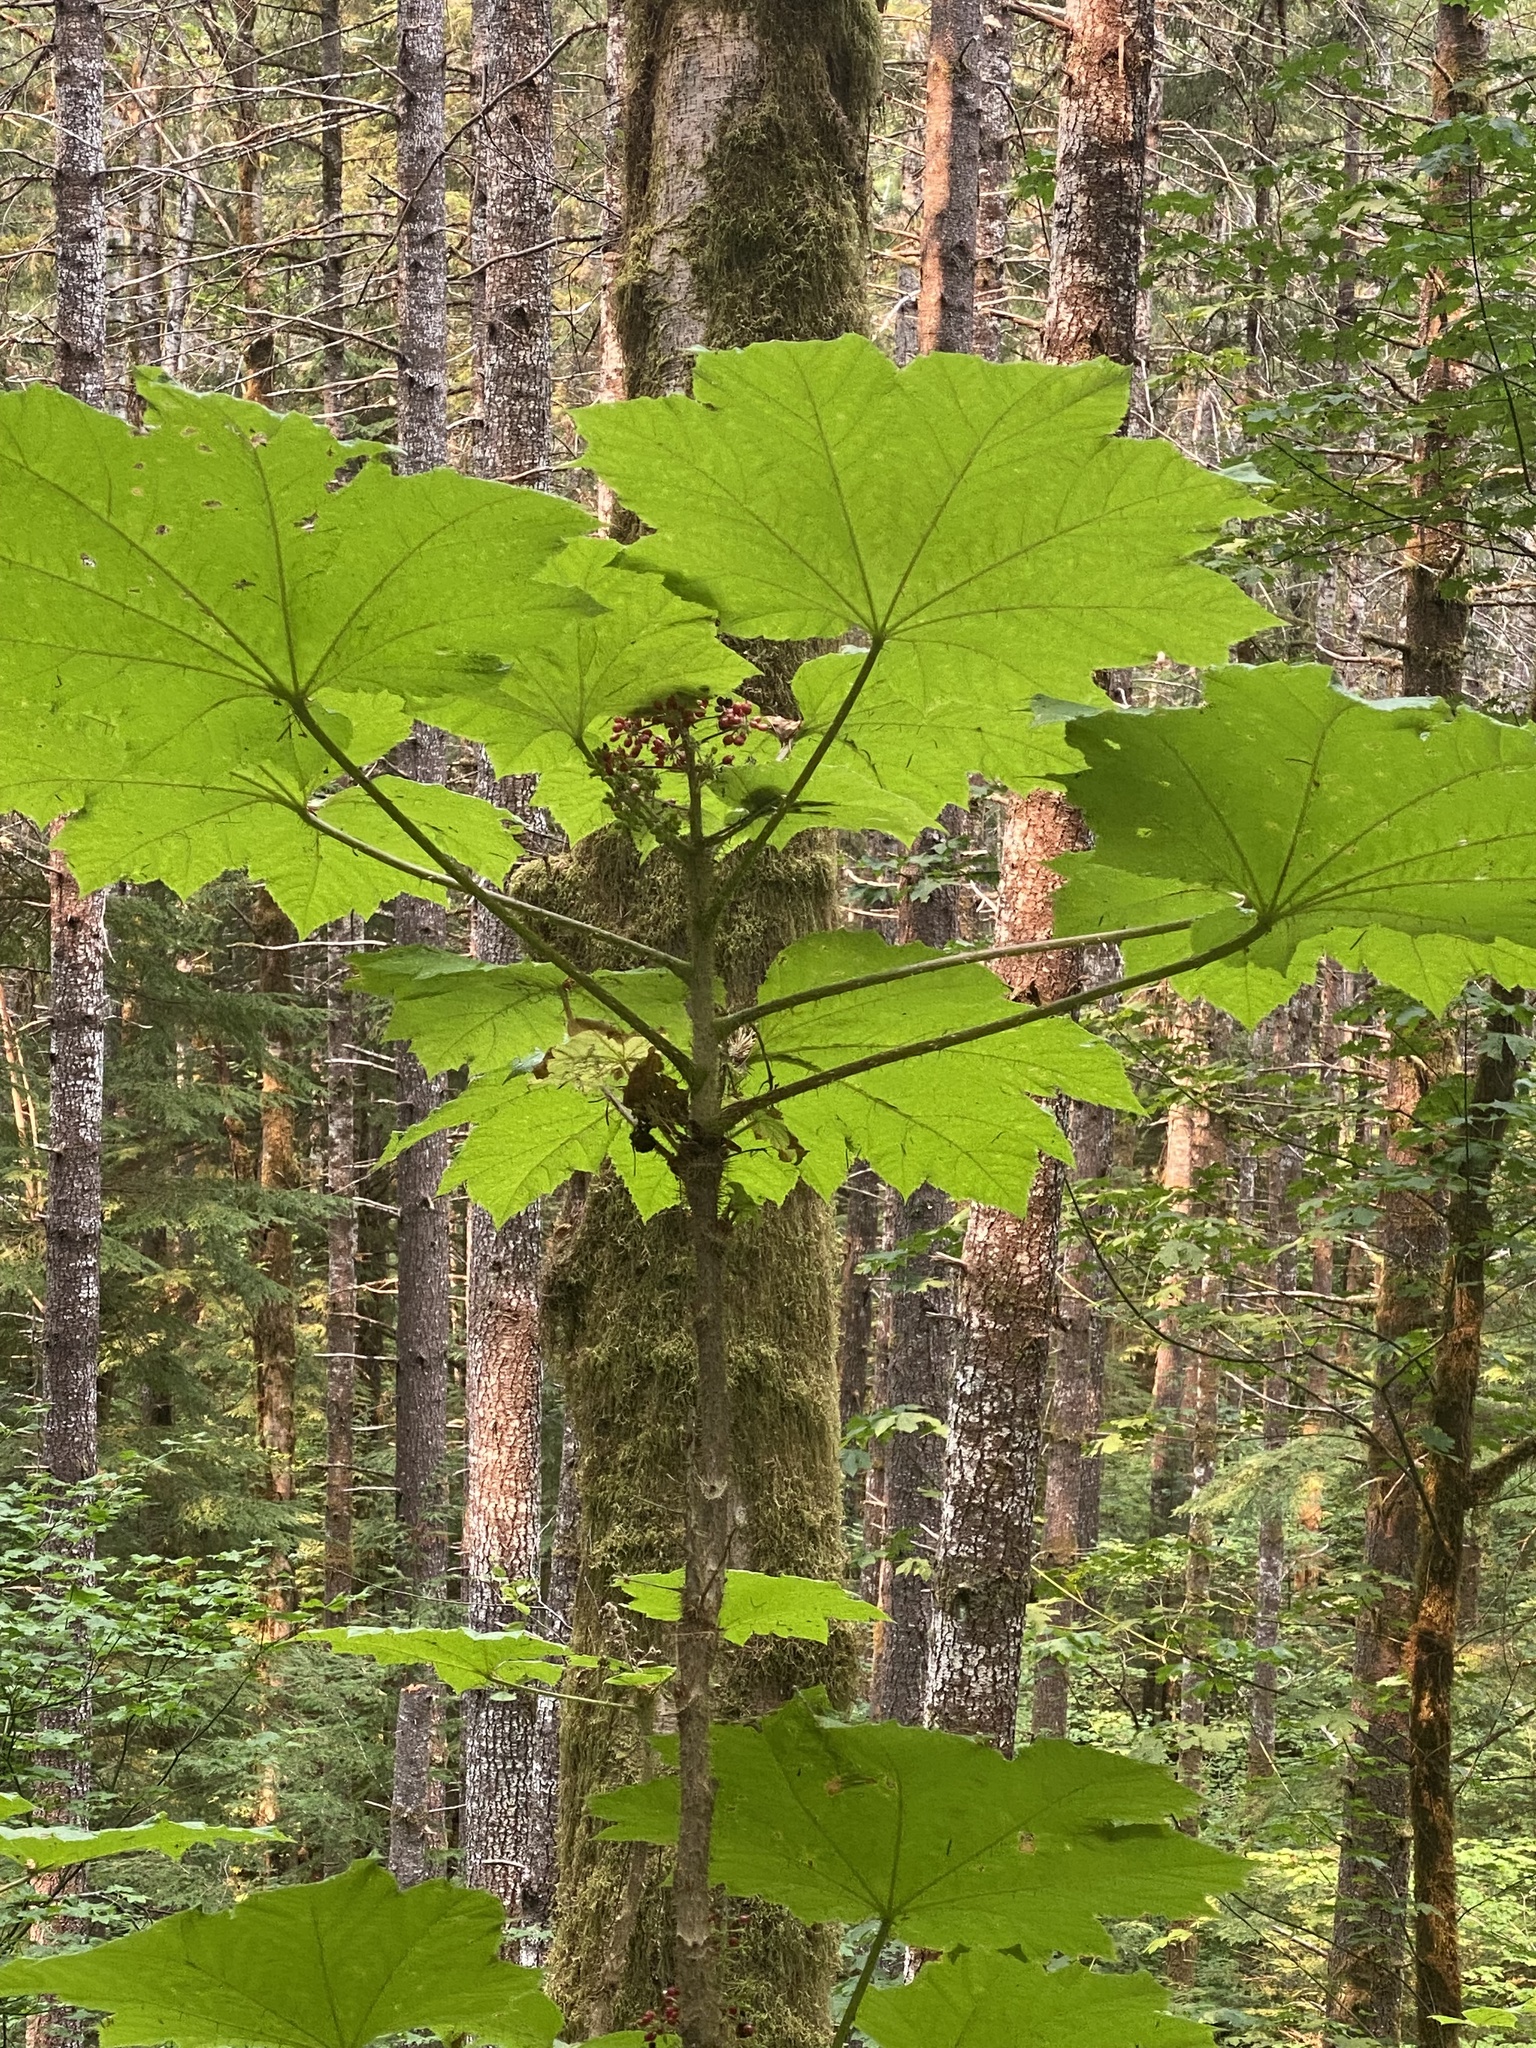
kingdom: Plantae
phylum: Tracheophyta
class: Magnoliopsida
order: Apiales
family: Araliaceae
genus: Oplopanax
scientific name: Oplopanax horridus
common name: Devil's walking-stick
